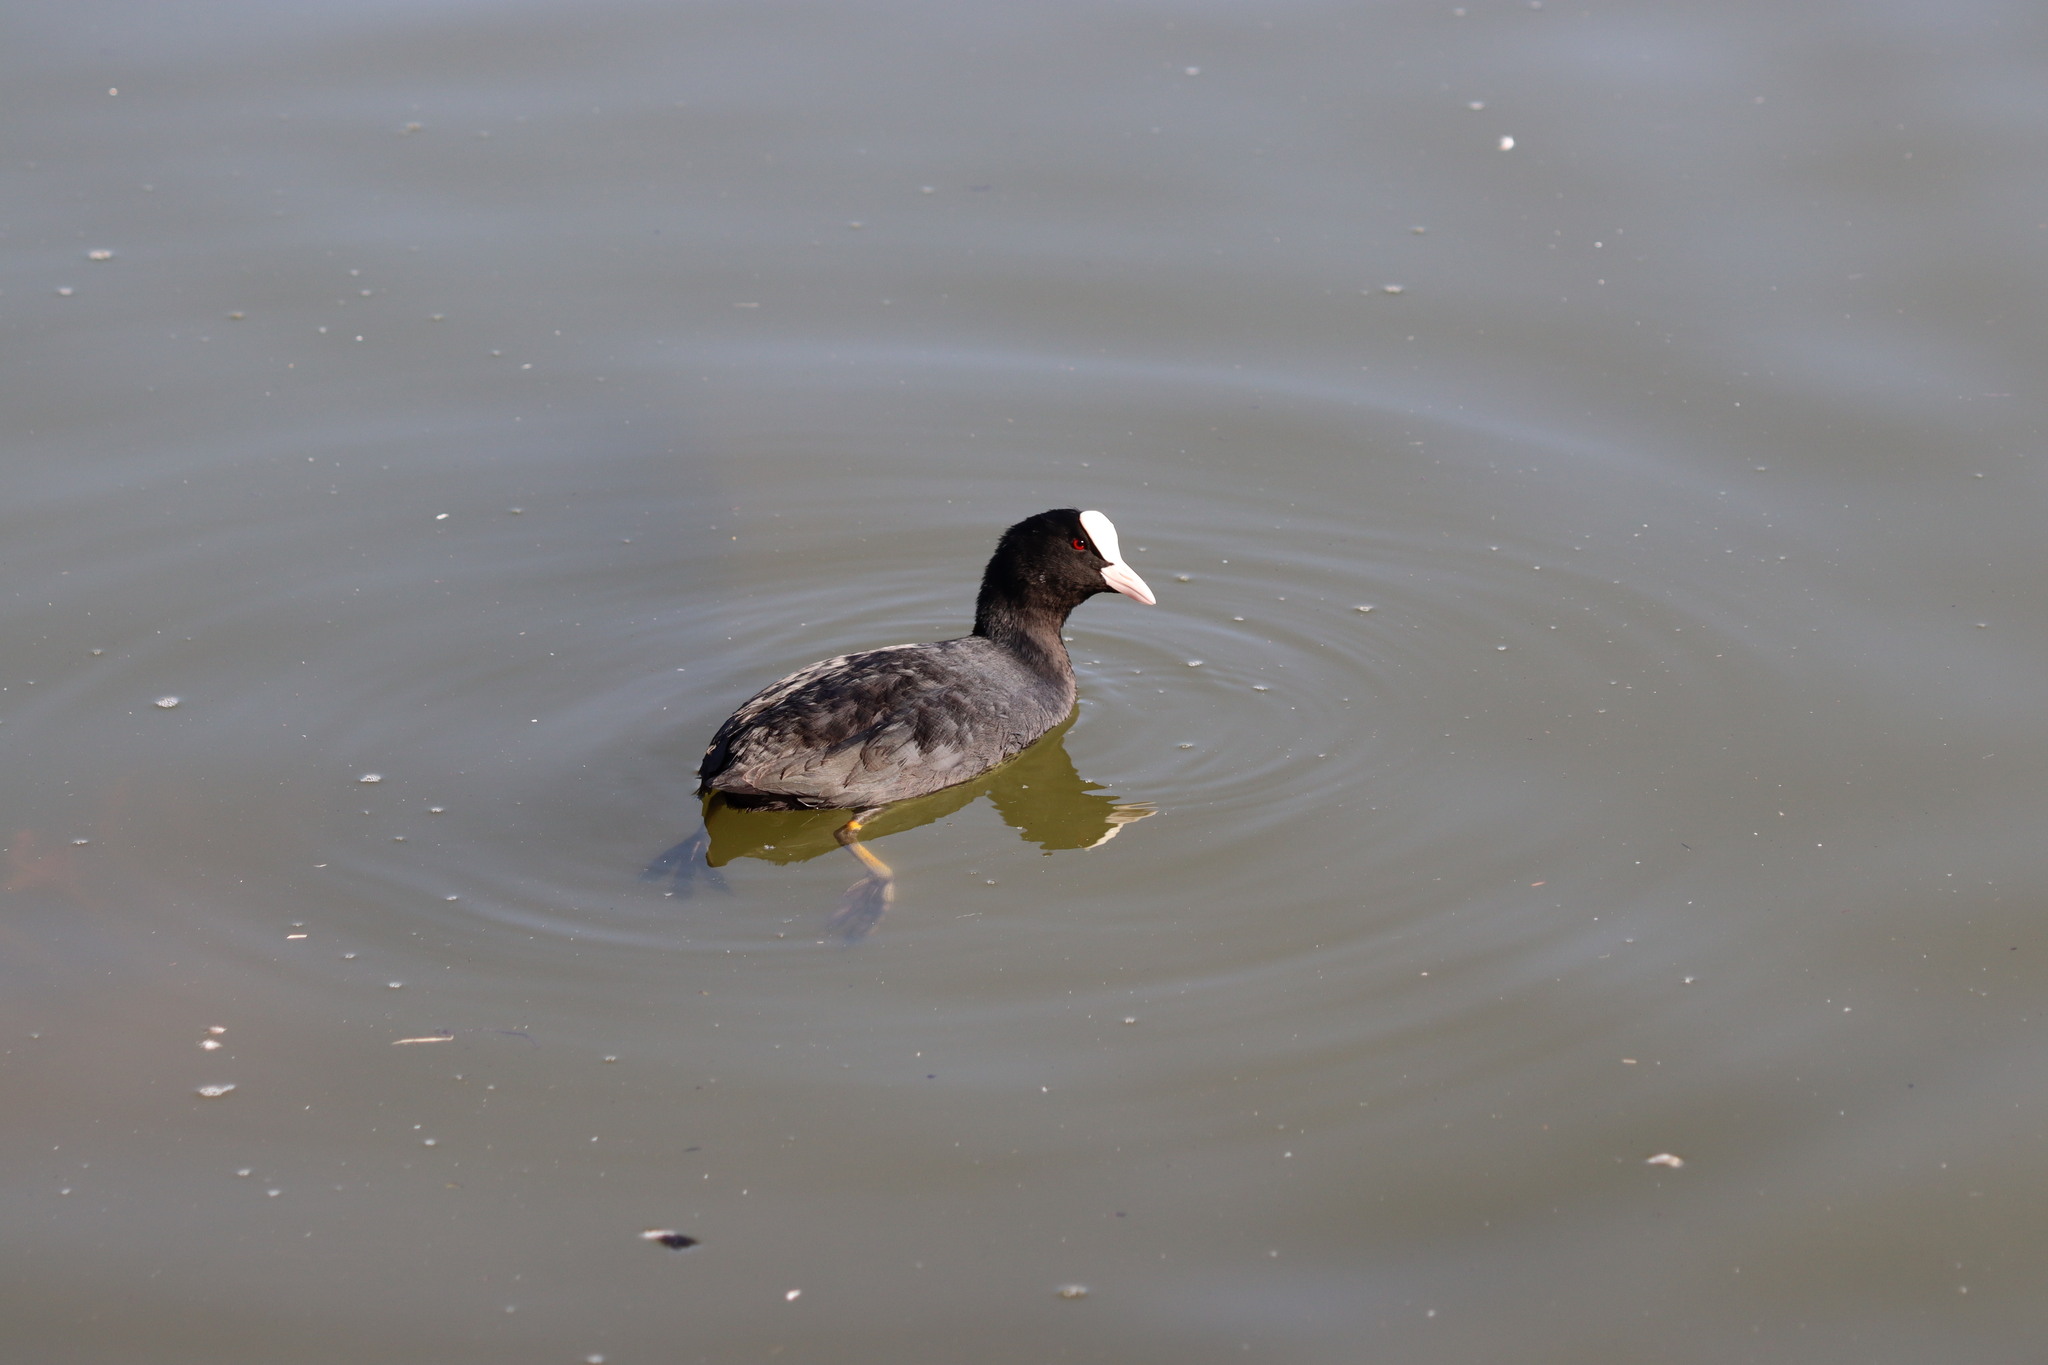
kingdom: Animalia
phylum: Chordata
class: Aves
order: Gruiformes
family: Rallidae
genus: Fulica
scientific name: Fulica atra
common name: Eurasian coot
